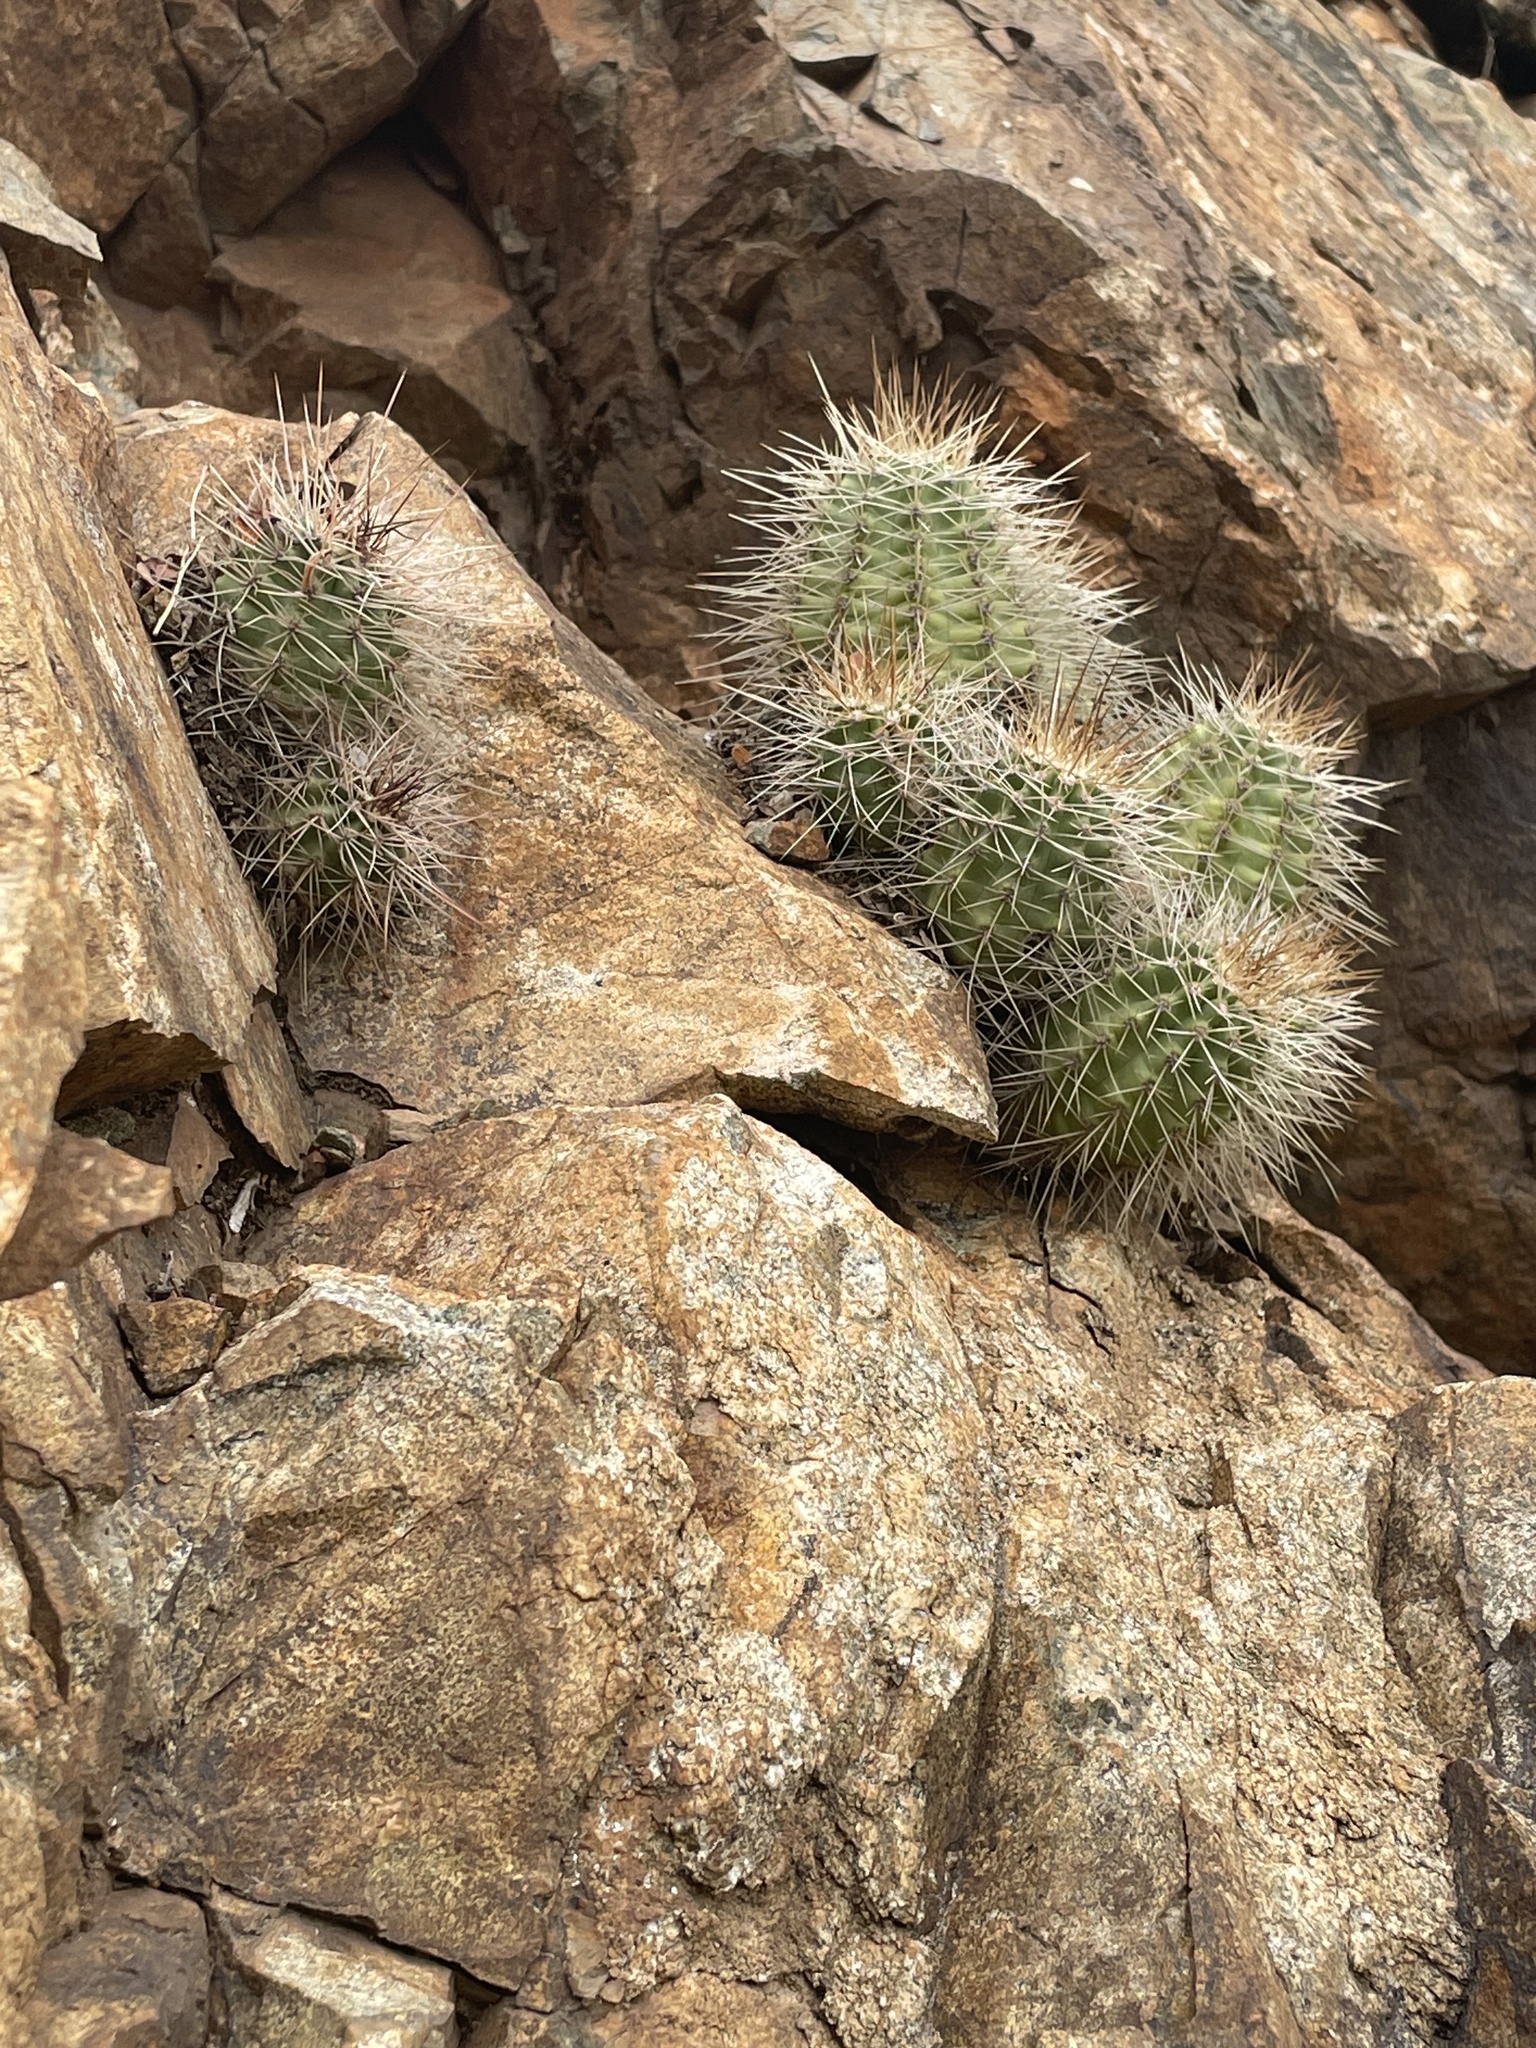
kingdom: Plantae
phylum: Tracheophyta
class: Magnoliopsida
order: Caryophyllales
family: Cactaceae
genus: Echinocereus
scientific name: Echinocereus yavapaiensis
